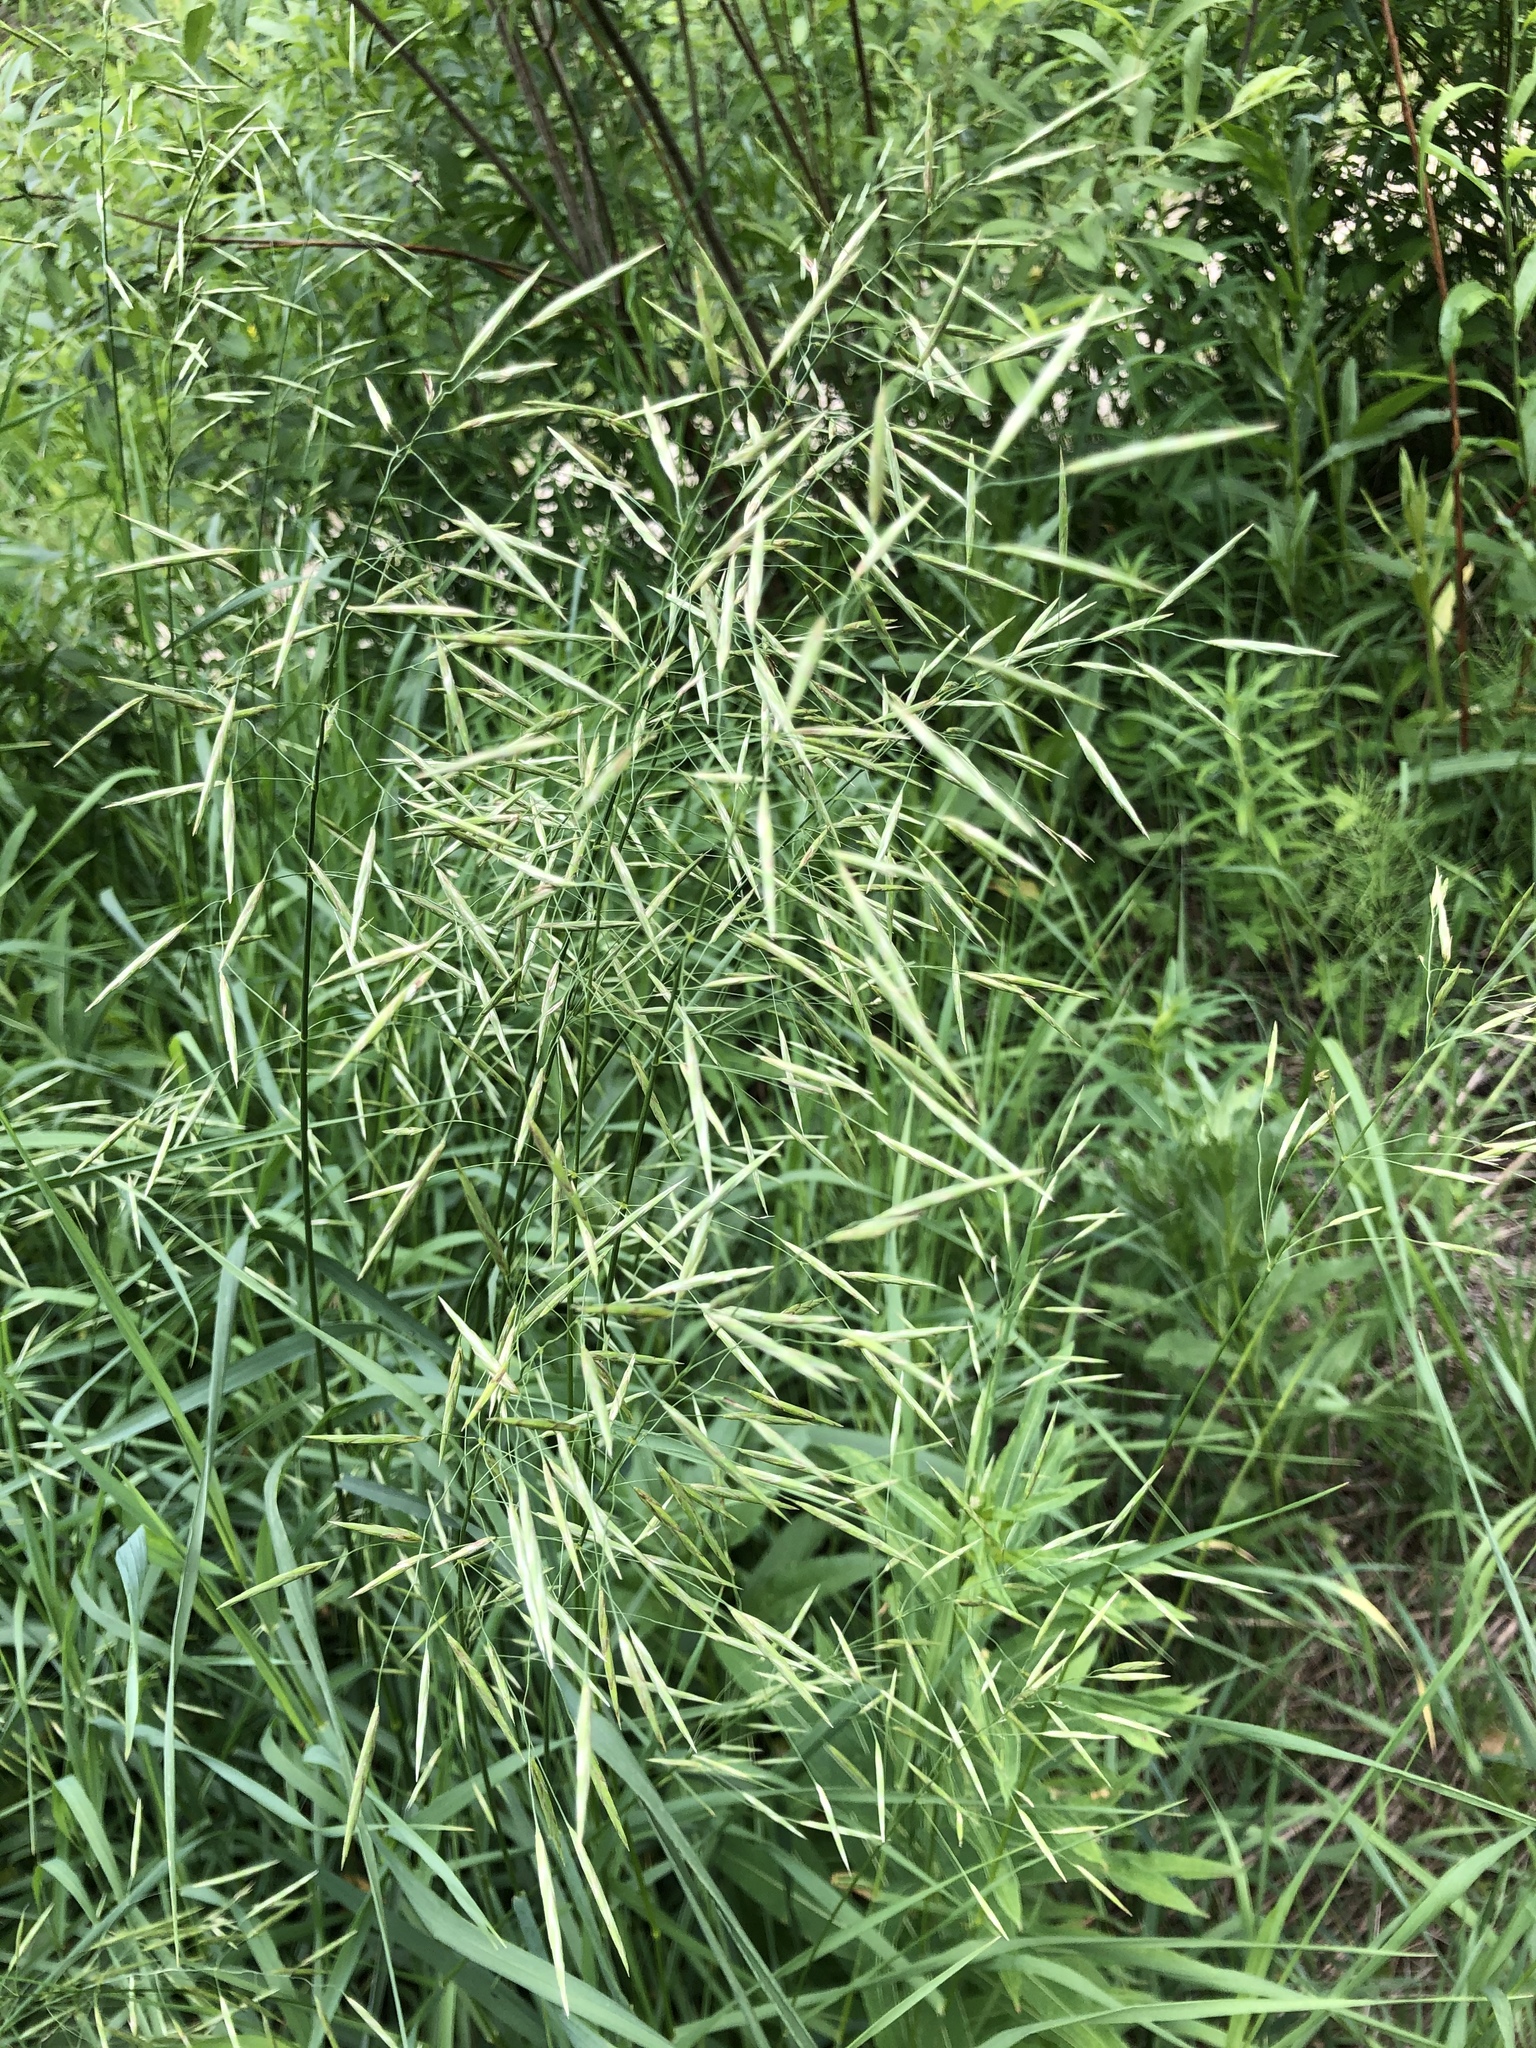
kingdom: Plantae
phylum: Tracheophyta
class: Liliopsida
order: Poales
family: Poaceae
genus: Bromus
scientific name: Bromus inermis
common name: Smooth brome
